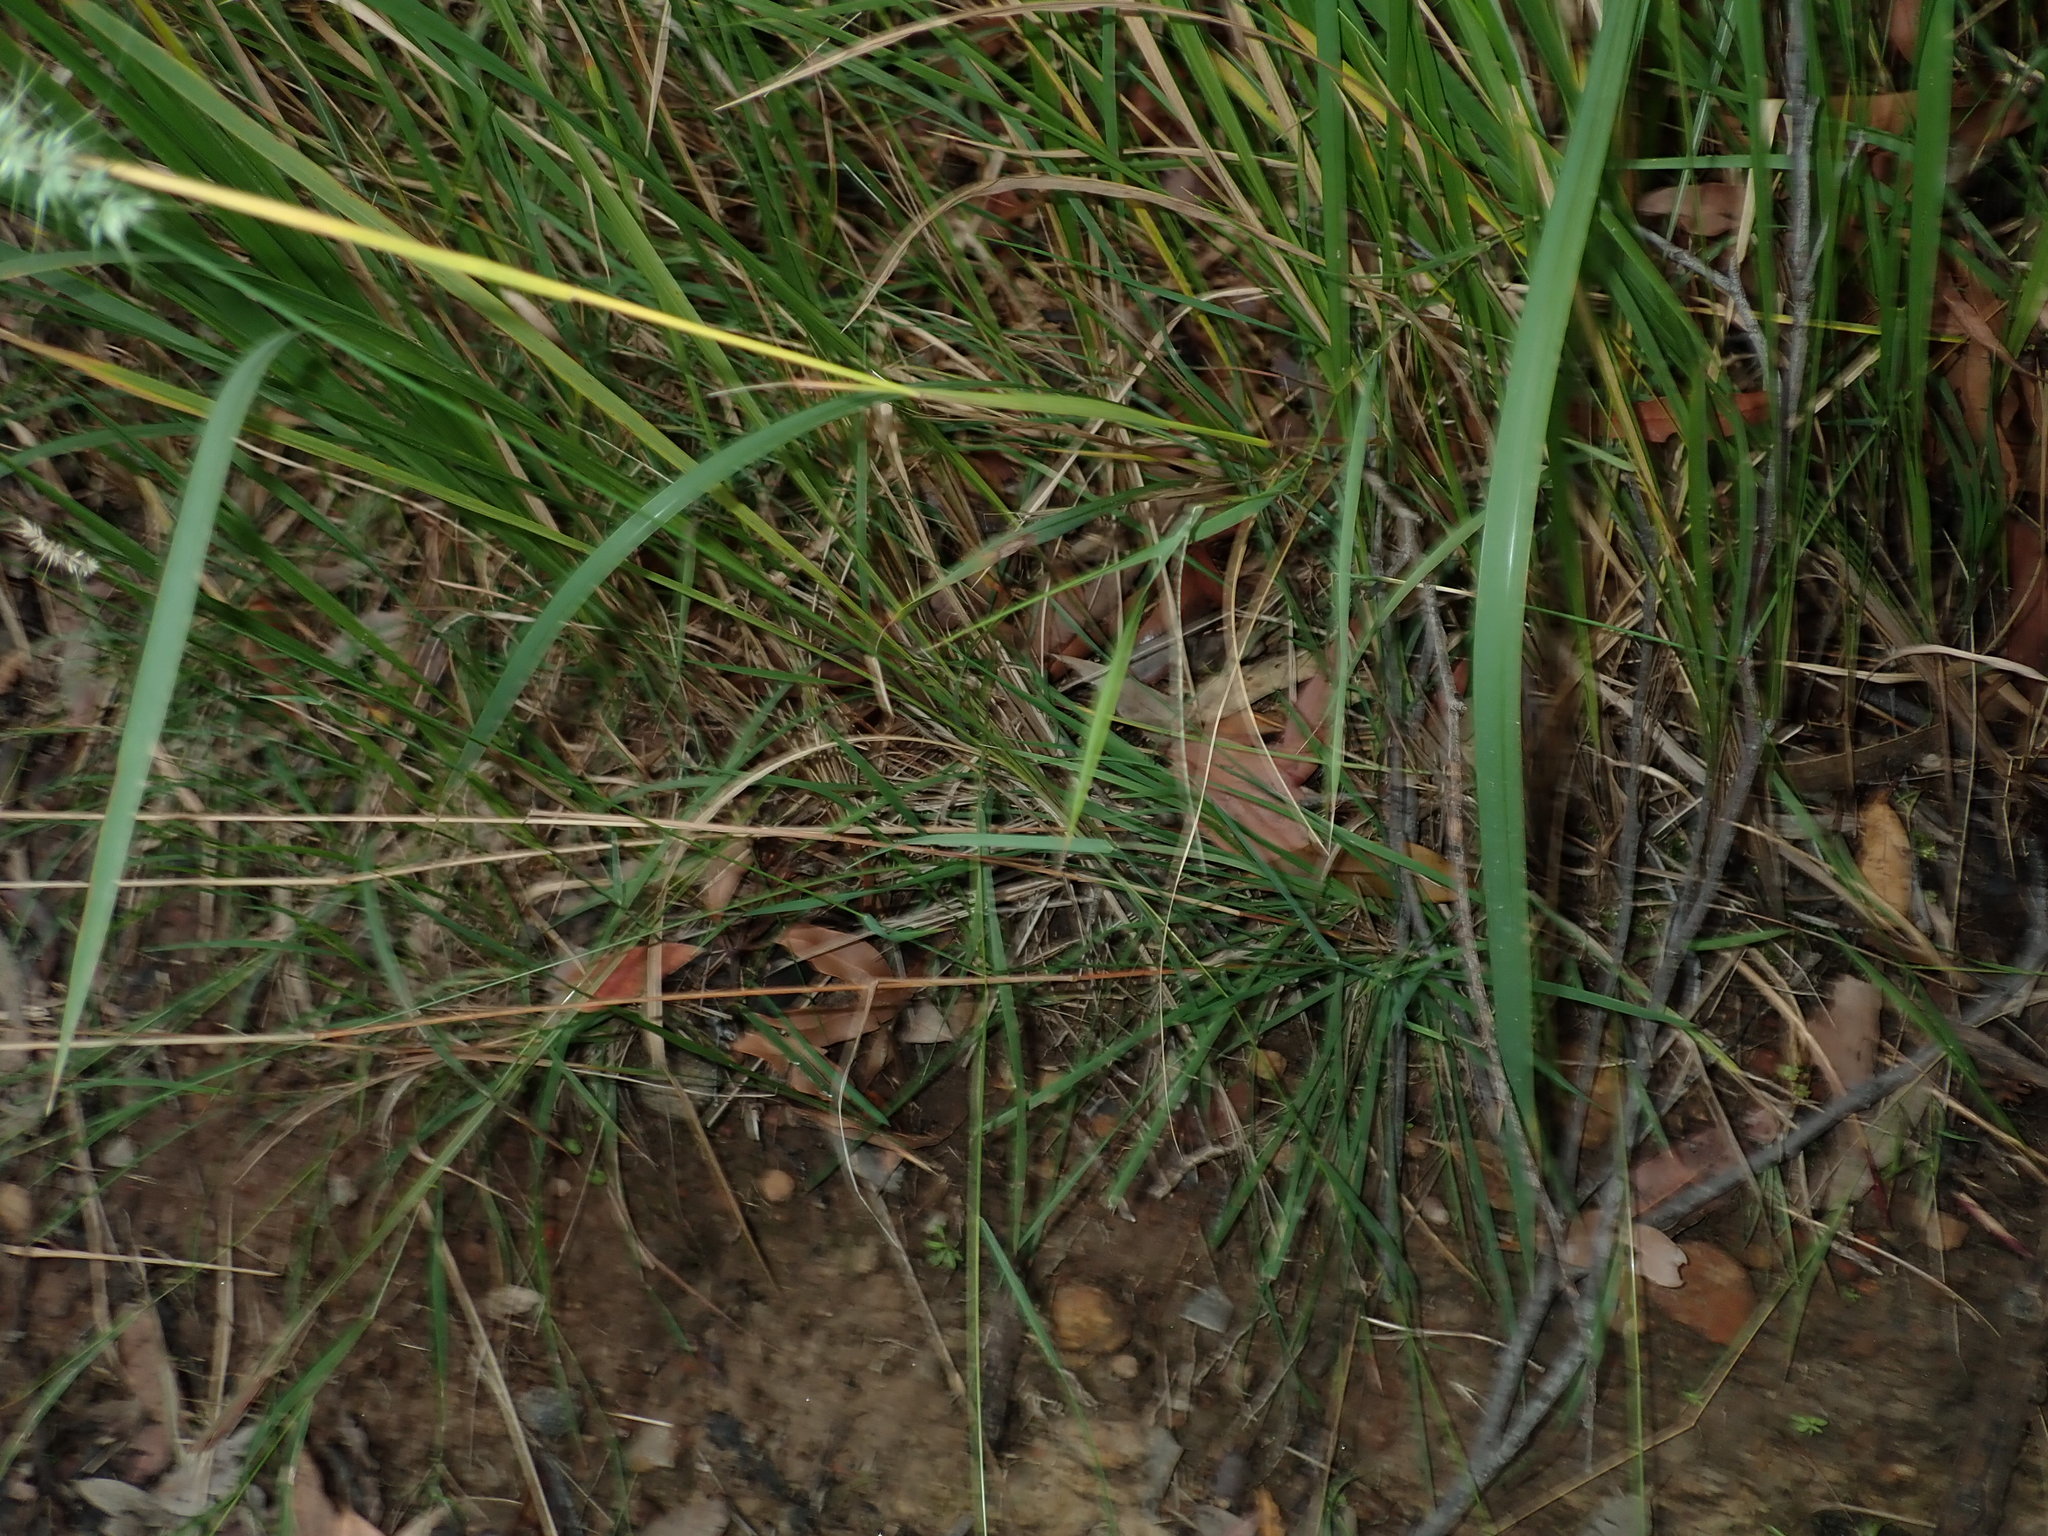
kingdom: Plantae
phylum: Tracheophyta
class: Liliopsida
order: Poales
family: Poaceae
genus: Echinopogon
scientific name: Echinopogon caespitosus
